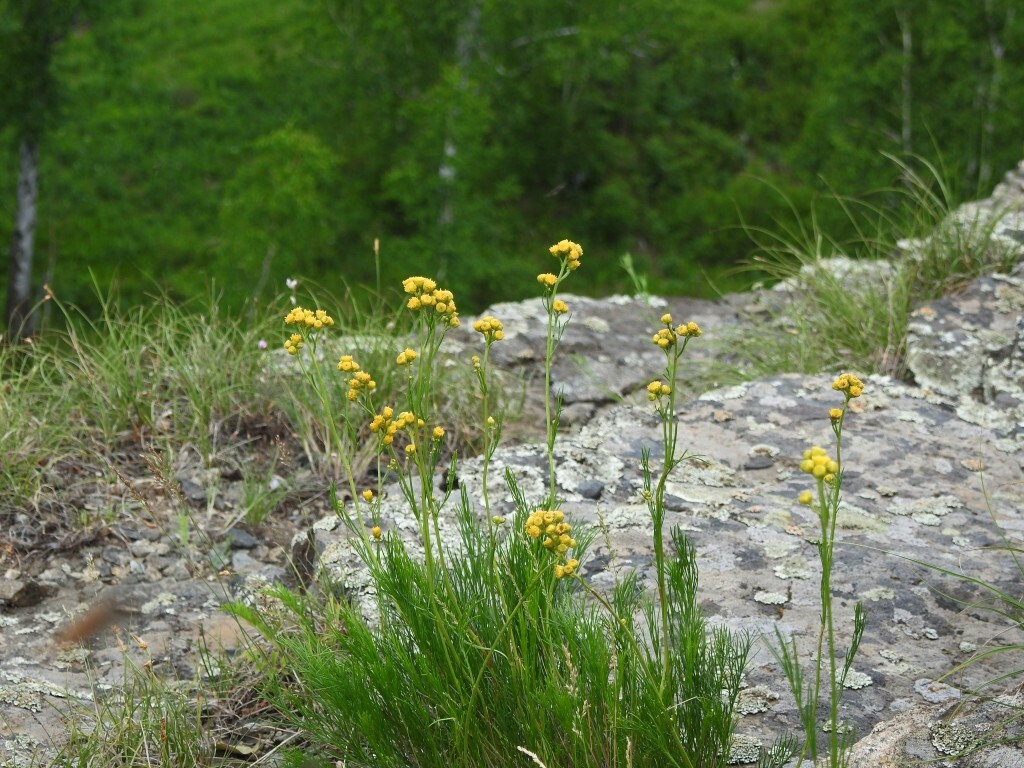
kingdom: Plantae
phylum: Tracheophyta
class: Magnoliopsida
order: Asterales
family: Asteraceae
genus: Filifolium
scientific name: Filifolium sibiricum
